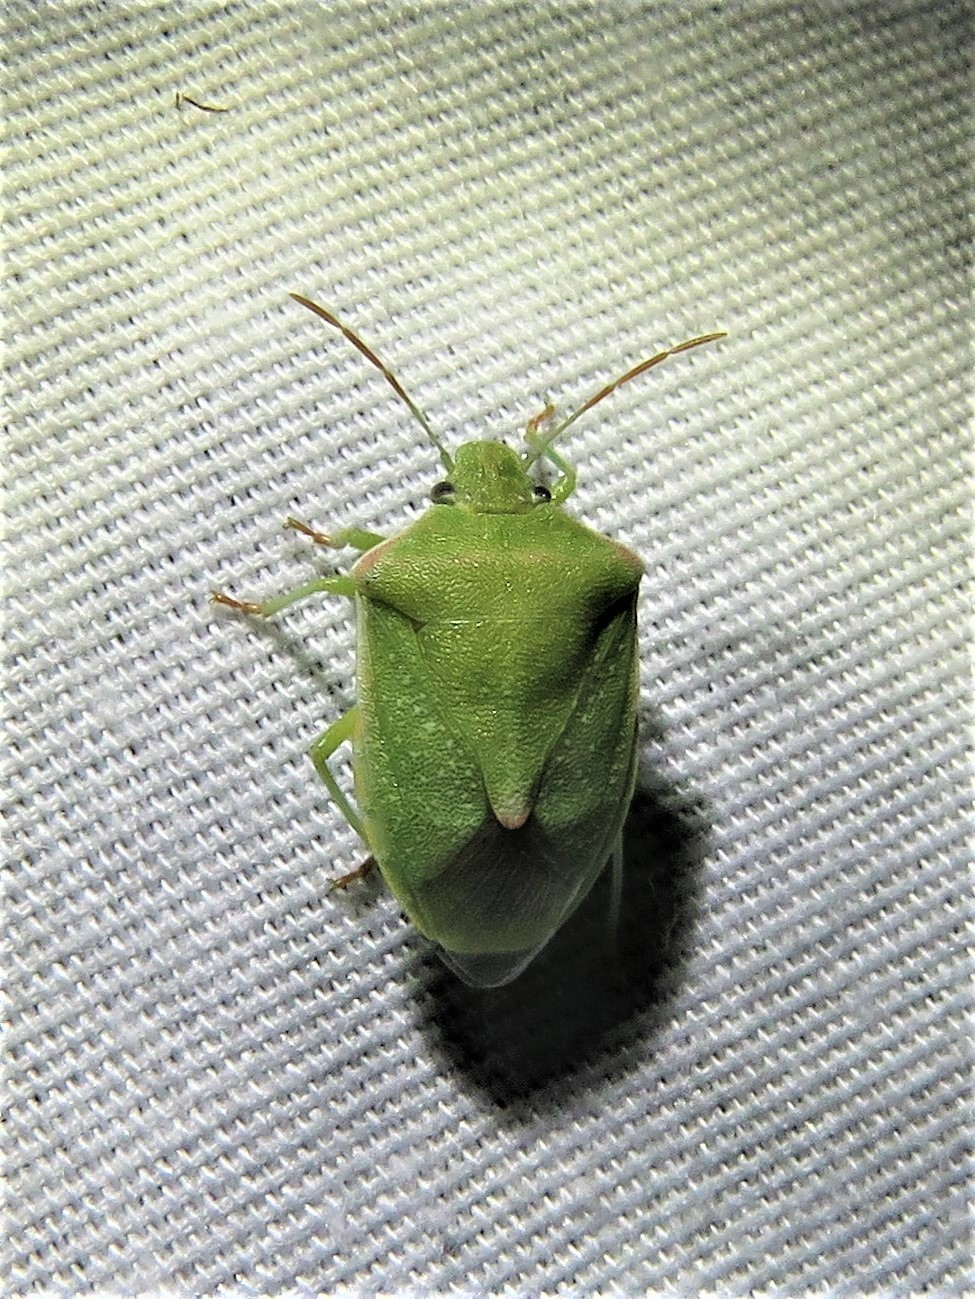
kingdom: Animalia
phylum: Arthropoda
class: Insecta
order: Hemiptera
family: Pentatomidae
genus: Thyanta
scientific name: Thyanta custator
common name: Stink bug
